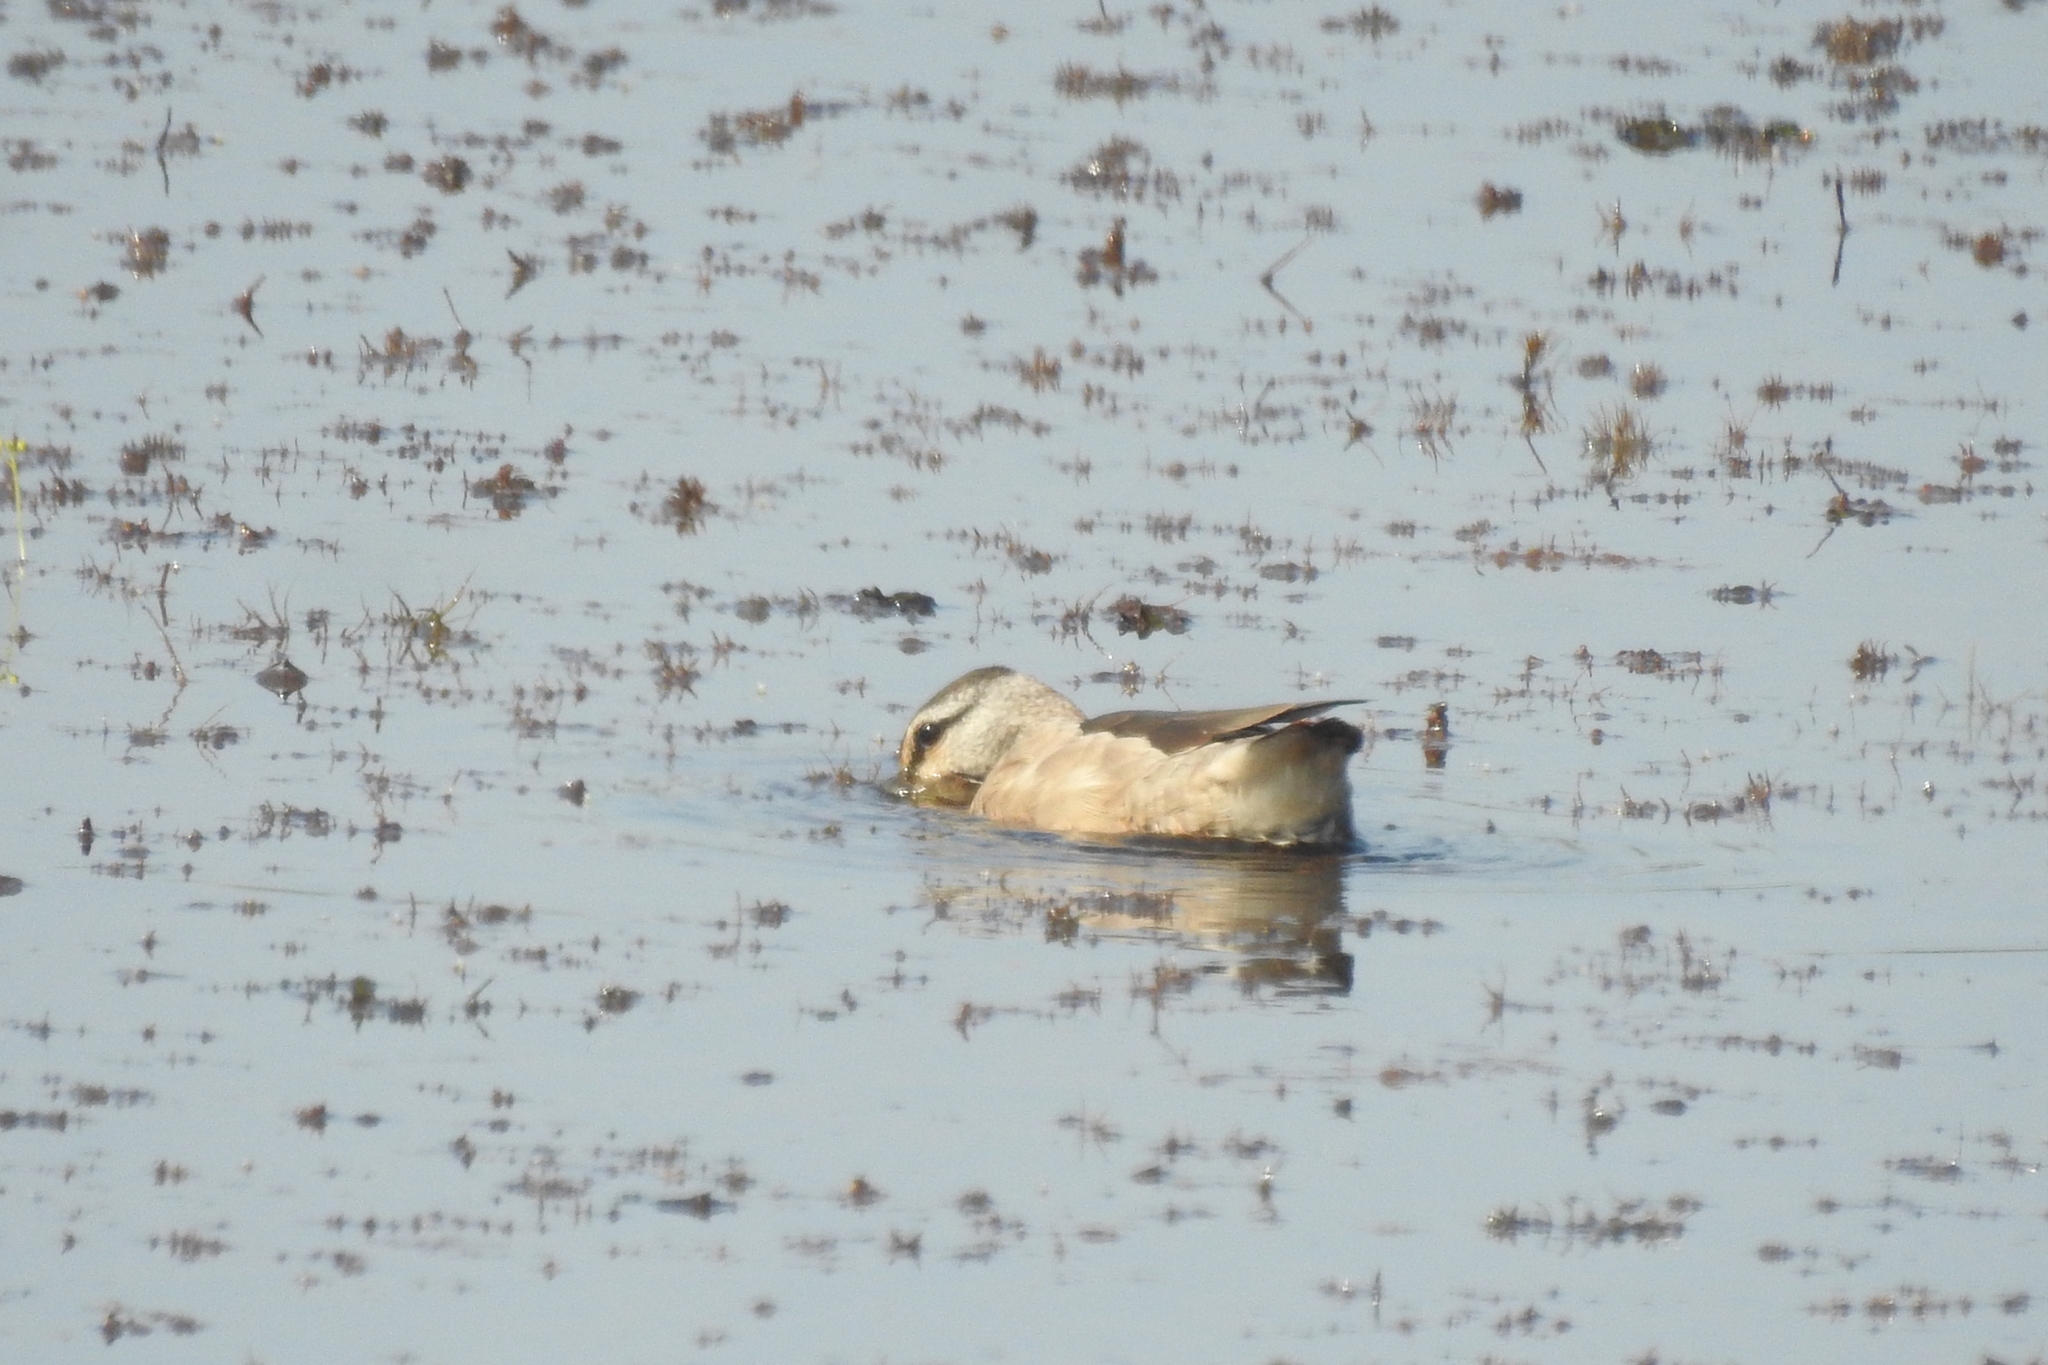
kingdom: Animalia
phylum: Chordata
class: Aves
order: Anseriformes
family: Anatidae
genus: Nettapus
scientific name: Nettapus coromandelianus
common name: Cotton pygmy-goose
